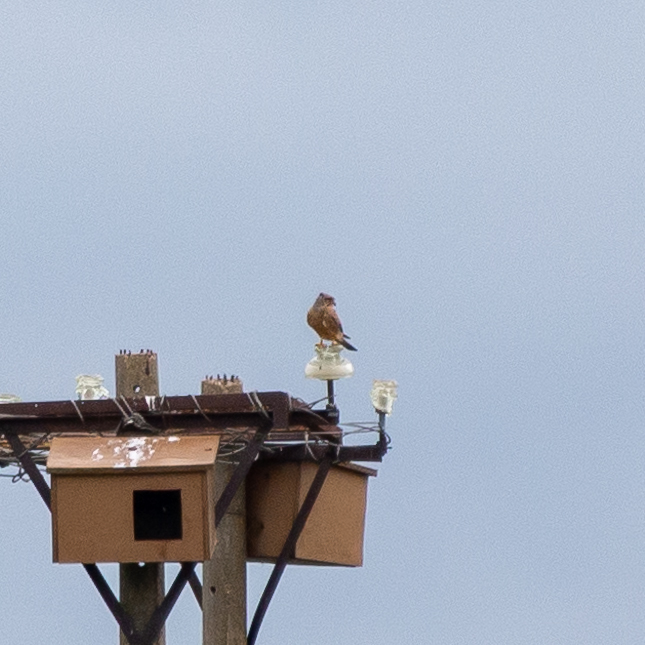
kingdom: Animalia
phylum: Chordata
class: Aves
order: Falconiformes
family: Falconidae
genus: Falco
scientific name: Falco tinnunculus
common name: Common kestrel
